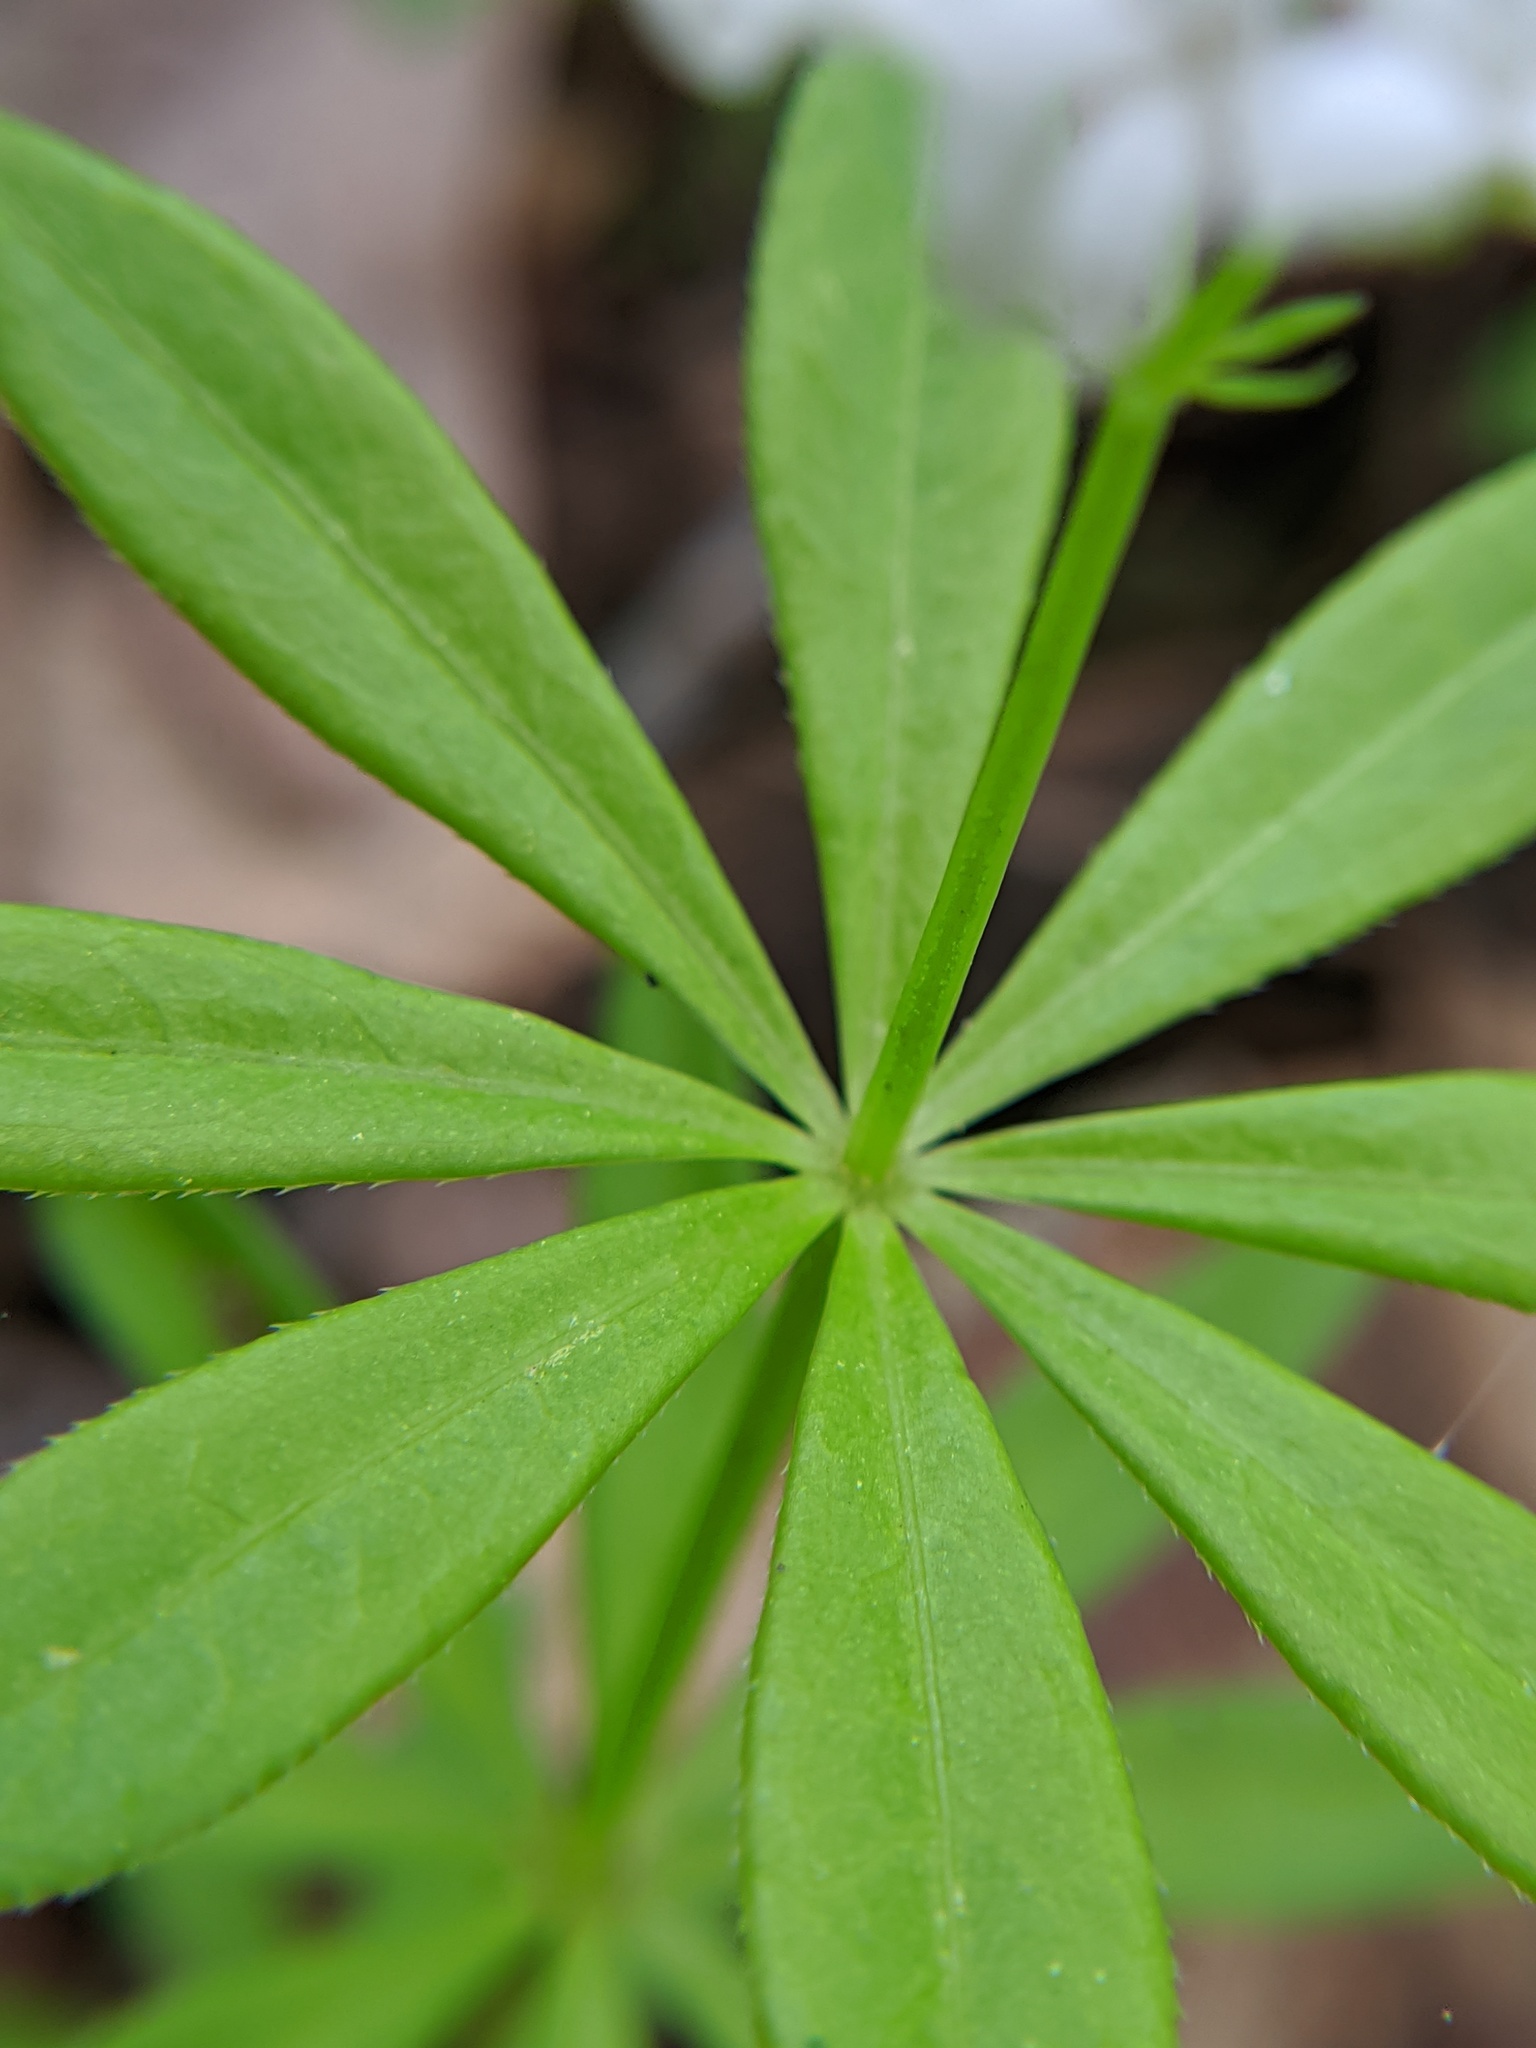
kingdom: Plantae
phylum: Tracheophyta
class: Magnoliopsida
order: Gentianales
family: Rubiaceae
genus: Galium
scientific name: Galium odoratum
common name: Sweet woodruff
